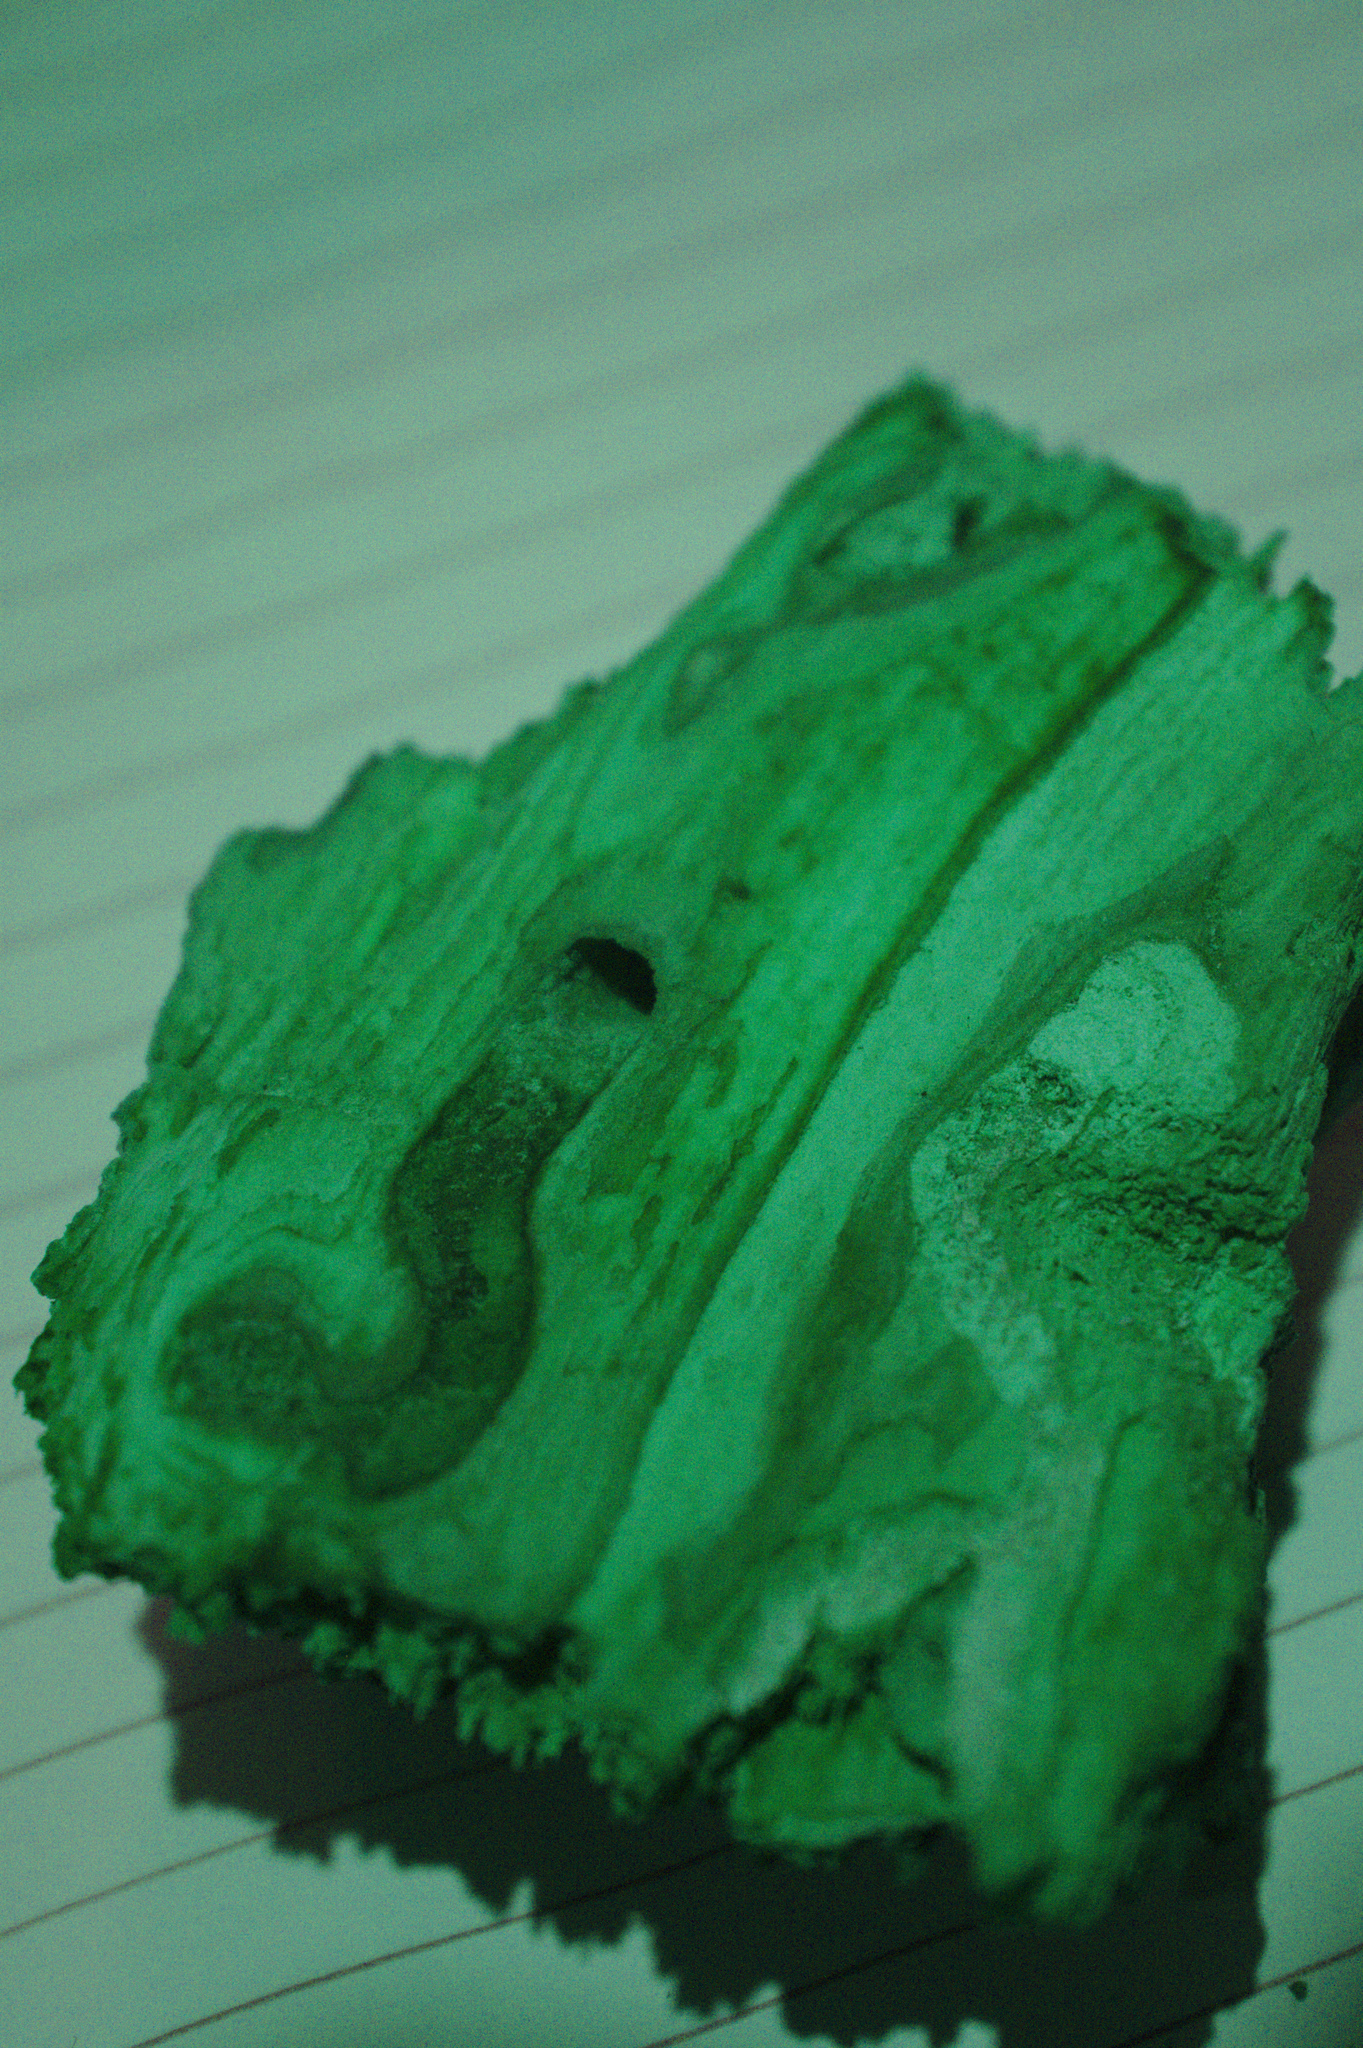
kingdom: Animalia
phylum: Arthropoda
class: Insecta
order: Coleoptera
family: Buprestidae
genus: Agrilus
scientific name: Agrilus planipennis
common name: Emerald ash borer
